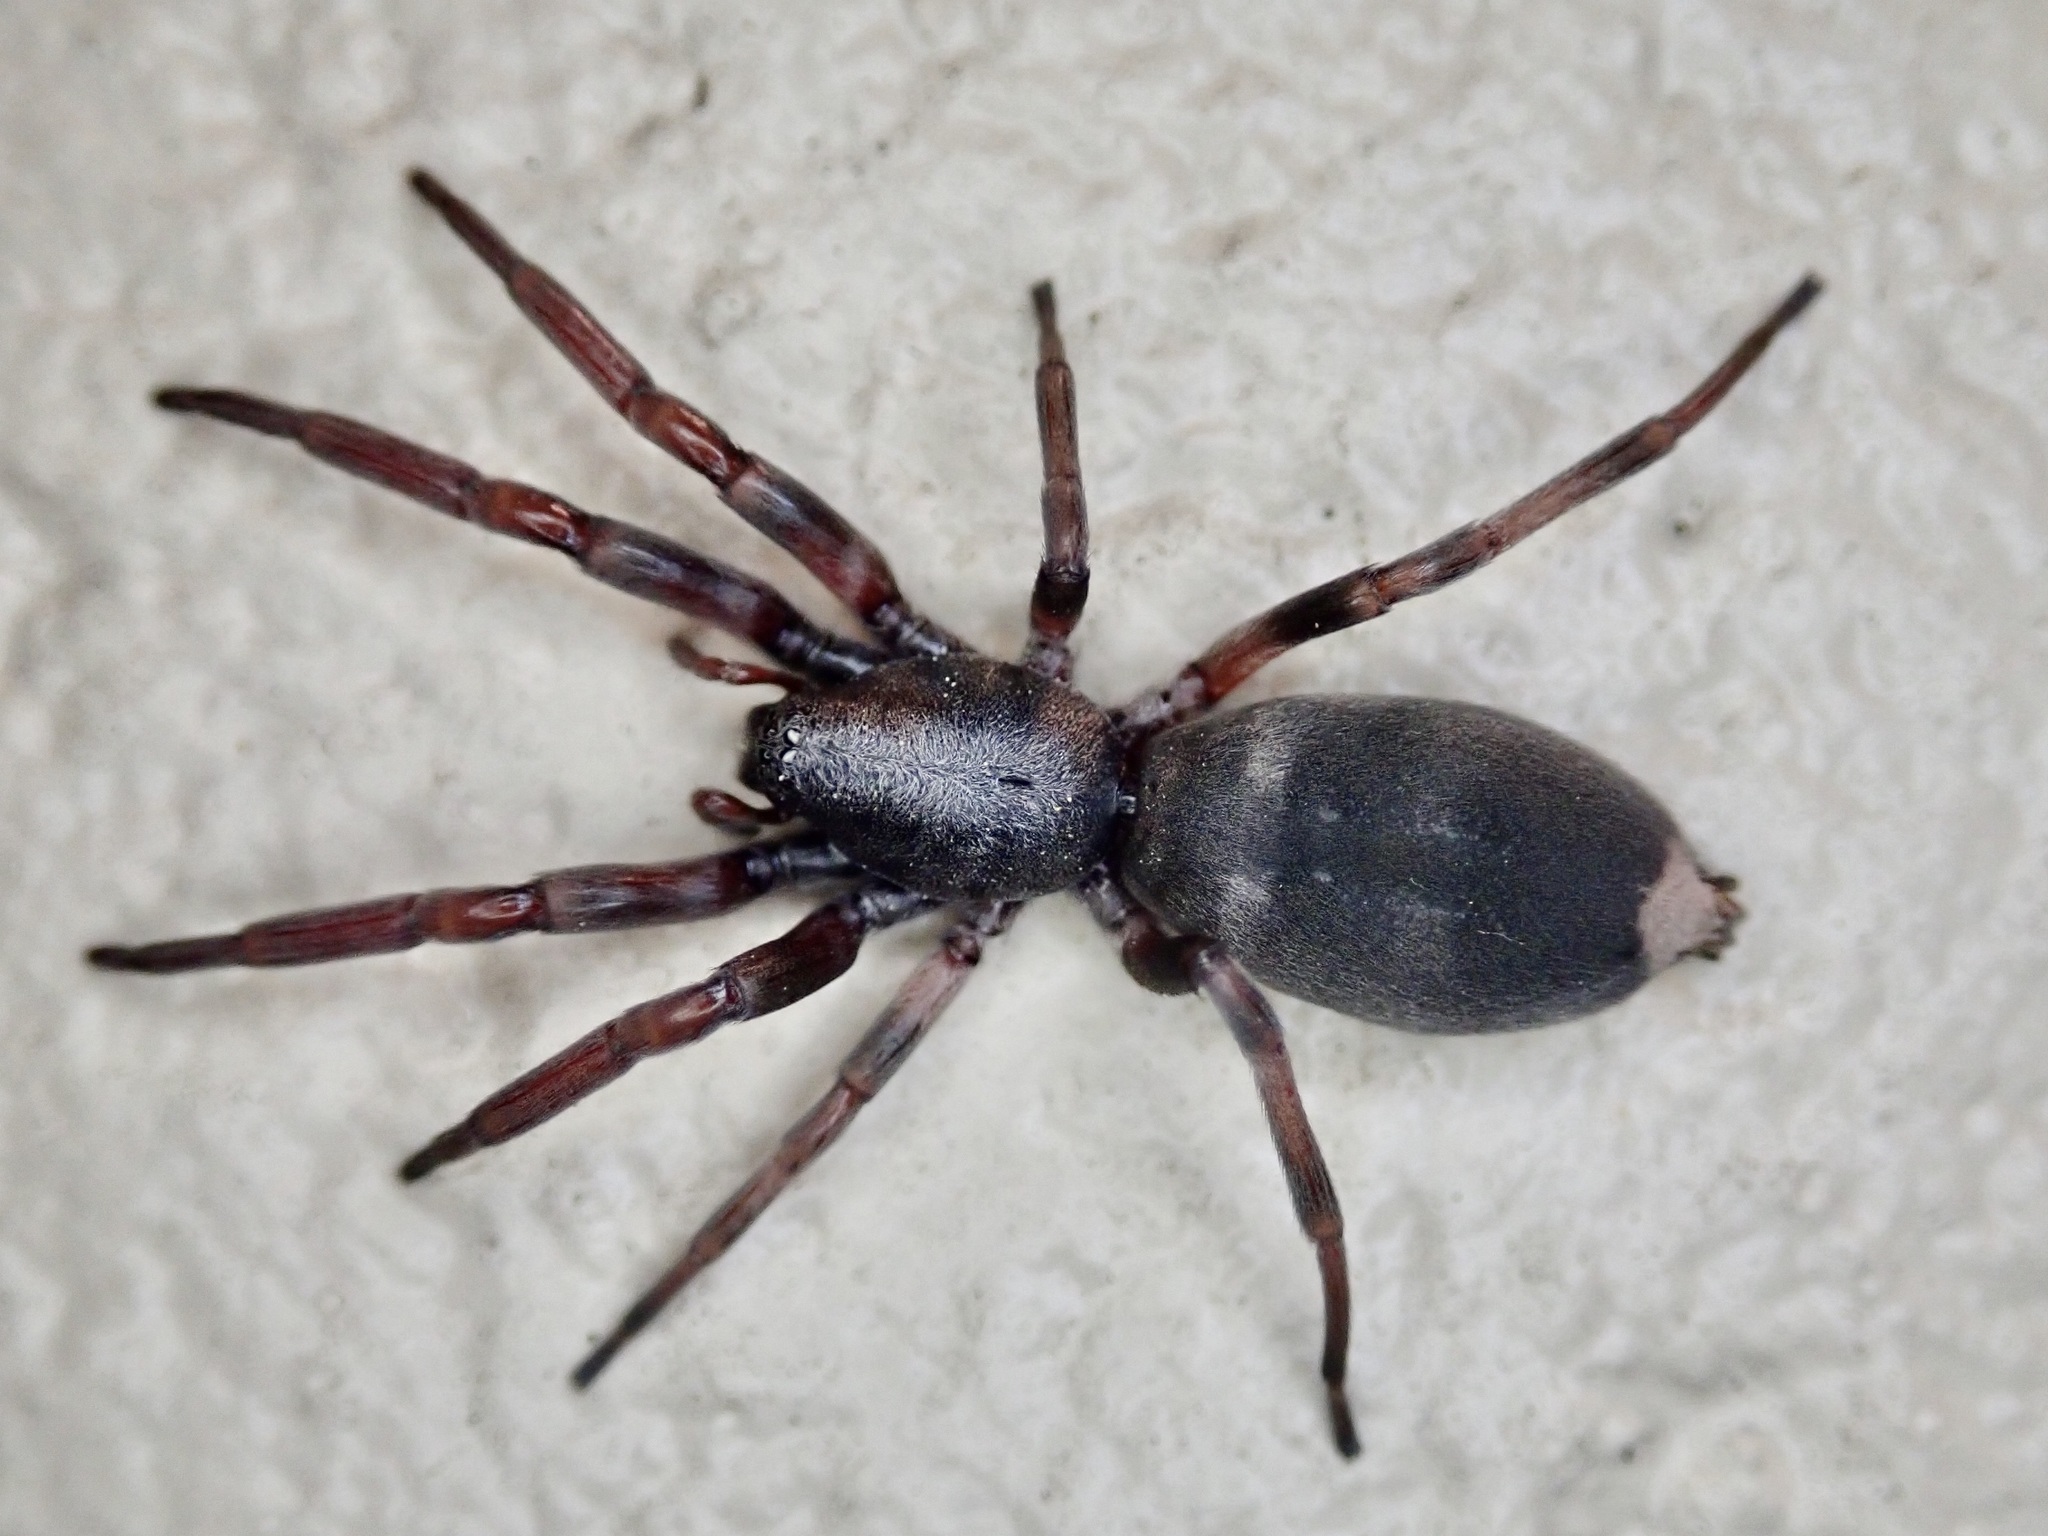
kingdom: Animalia
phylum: Arthropoda
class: Arachnida
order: Araneae
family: Lamponidae
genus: Lampona
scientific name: Lampona cylindrata
